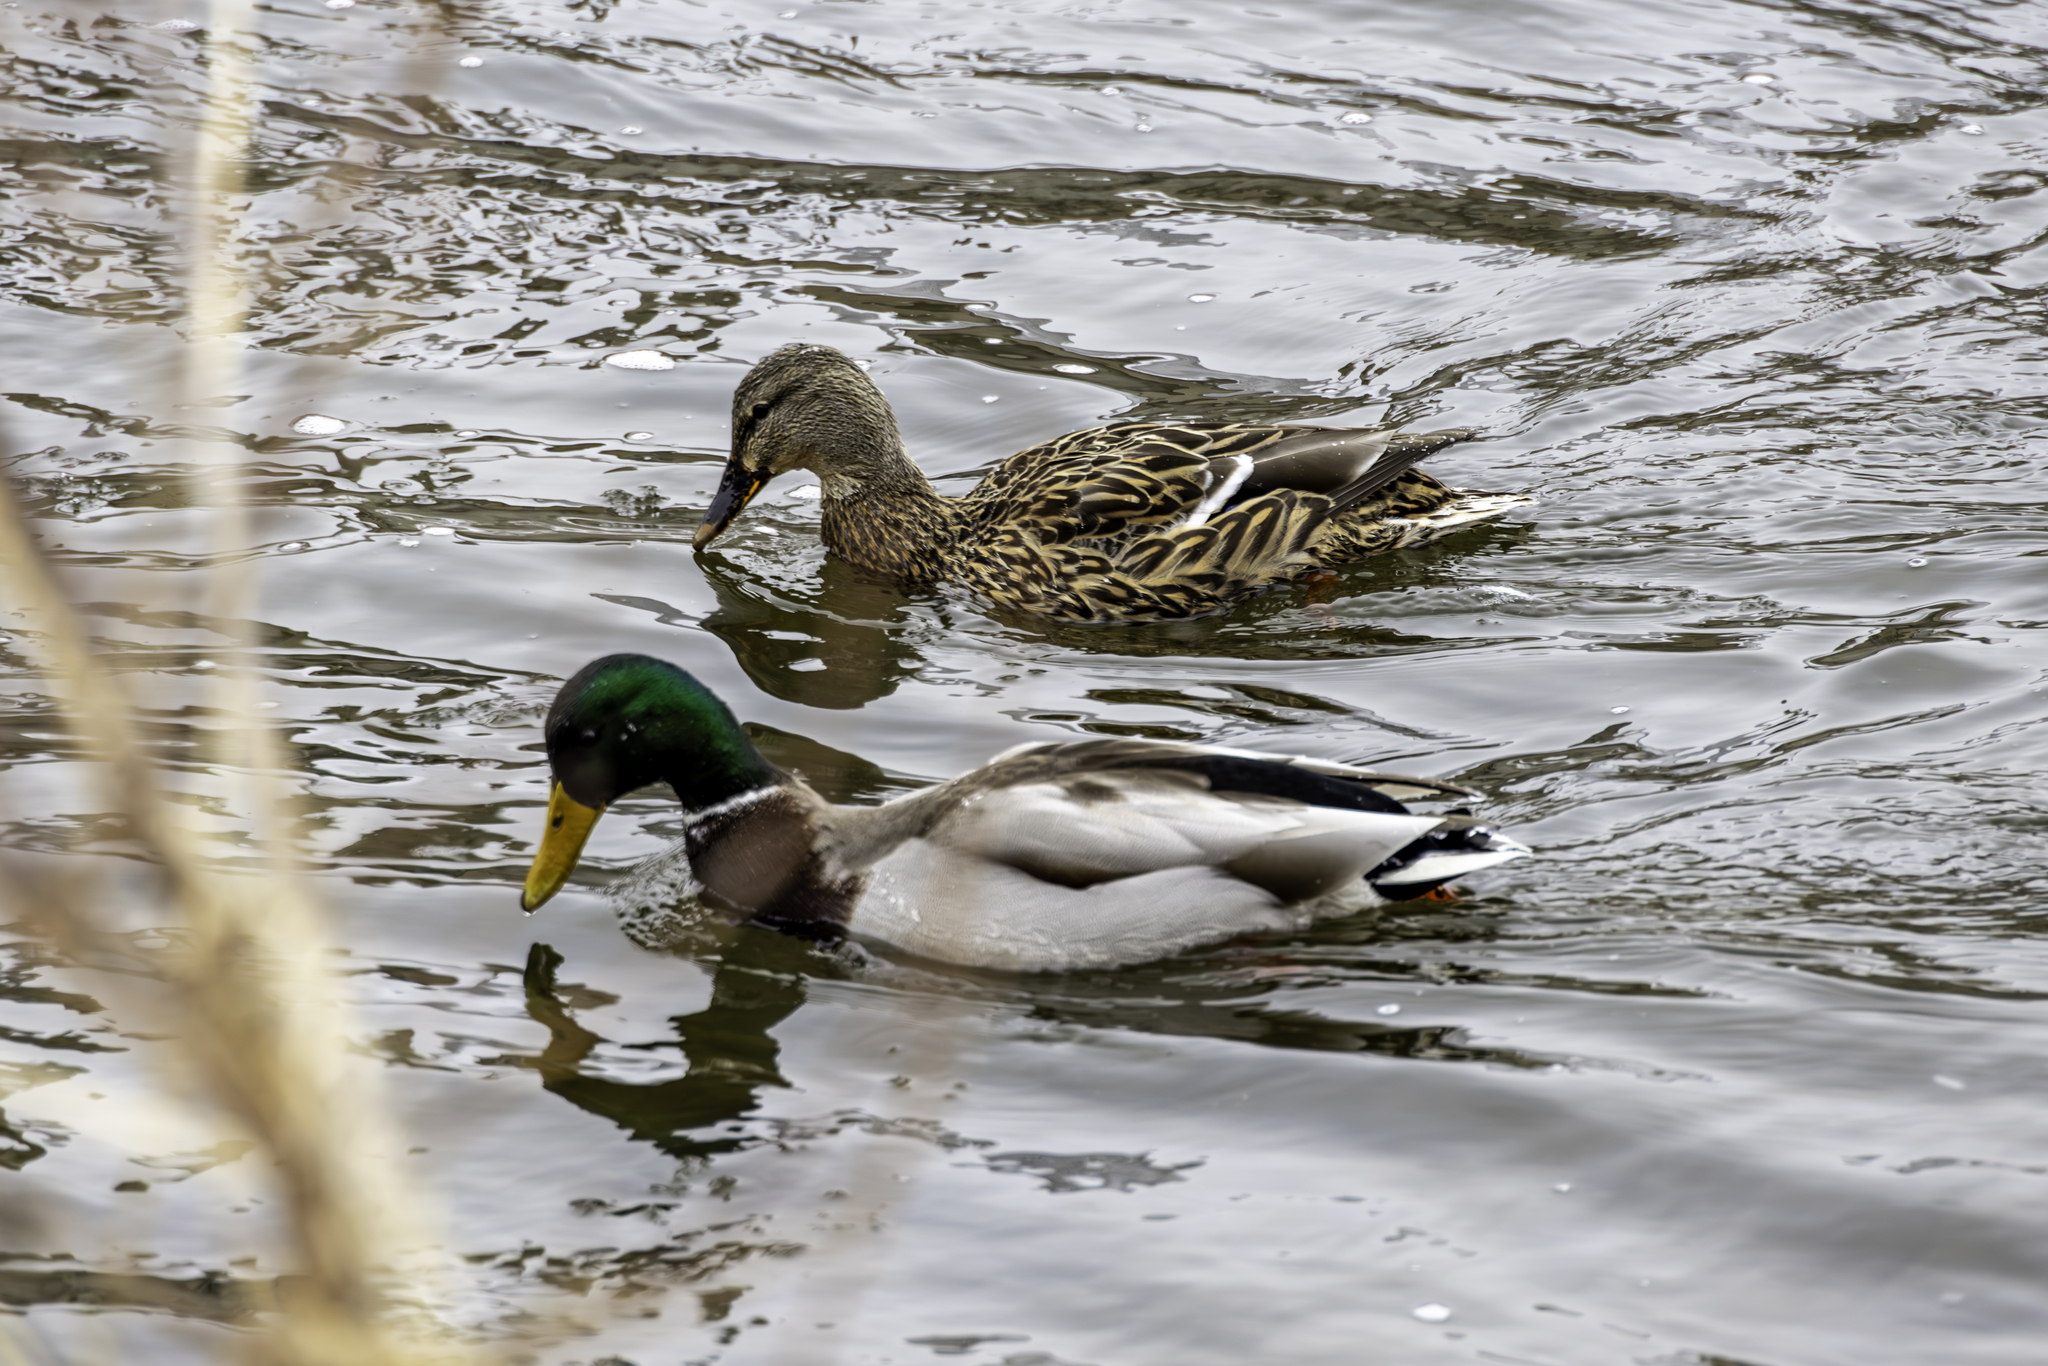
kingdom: Animalia
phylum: Chordata
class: Aves
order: Anseriformes
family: Anatidae
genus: Anas
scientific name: Anas platyrhynchos
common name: Mallard
